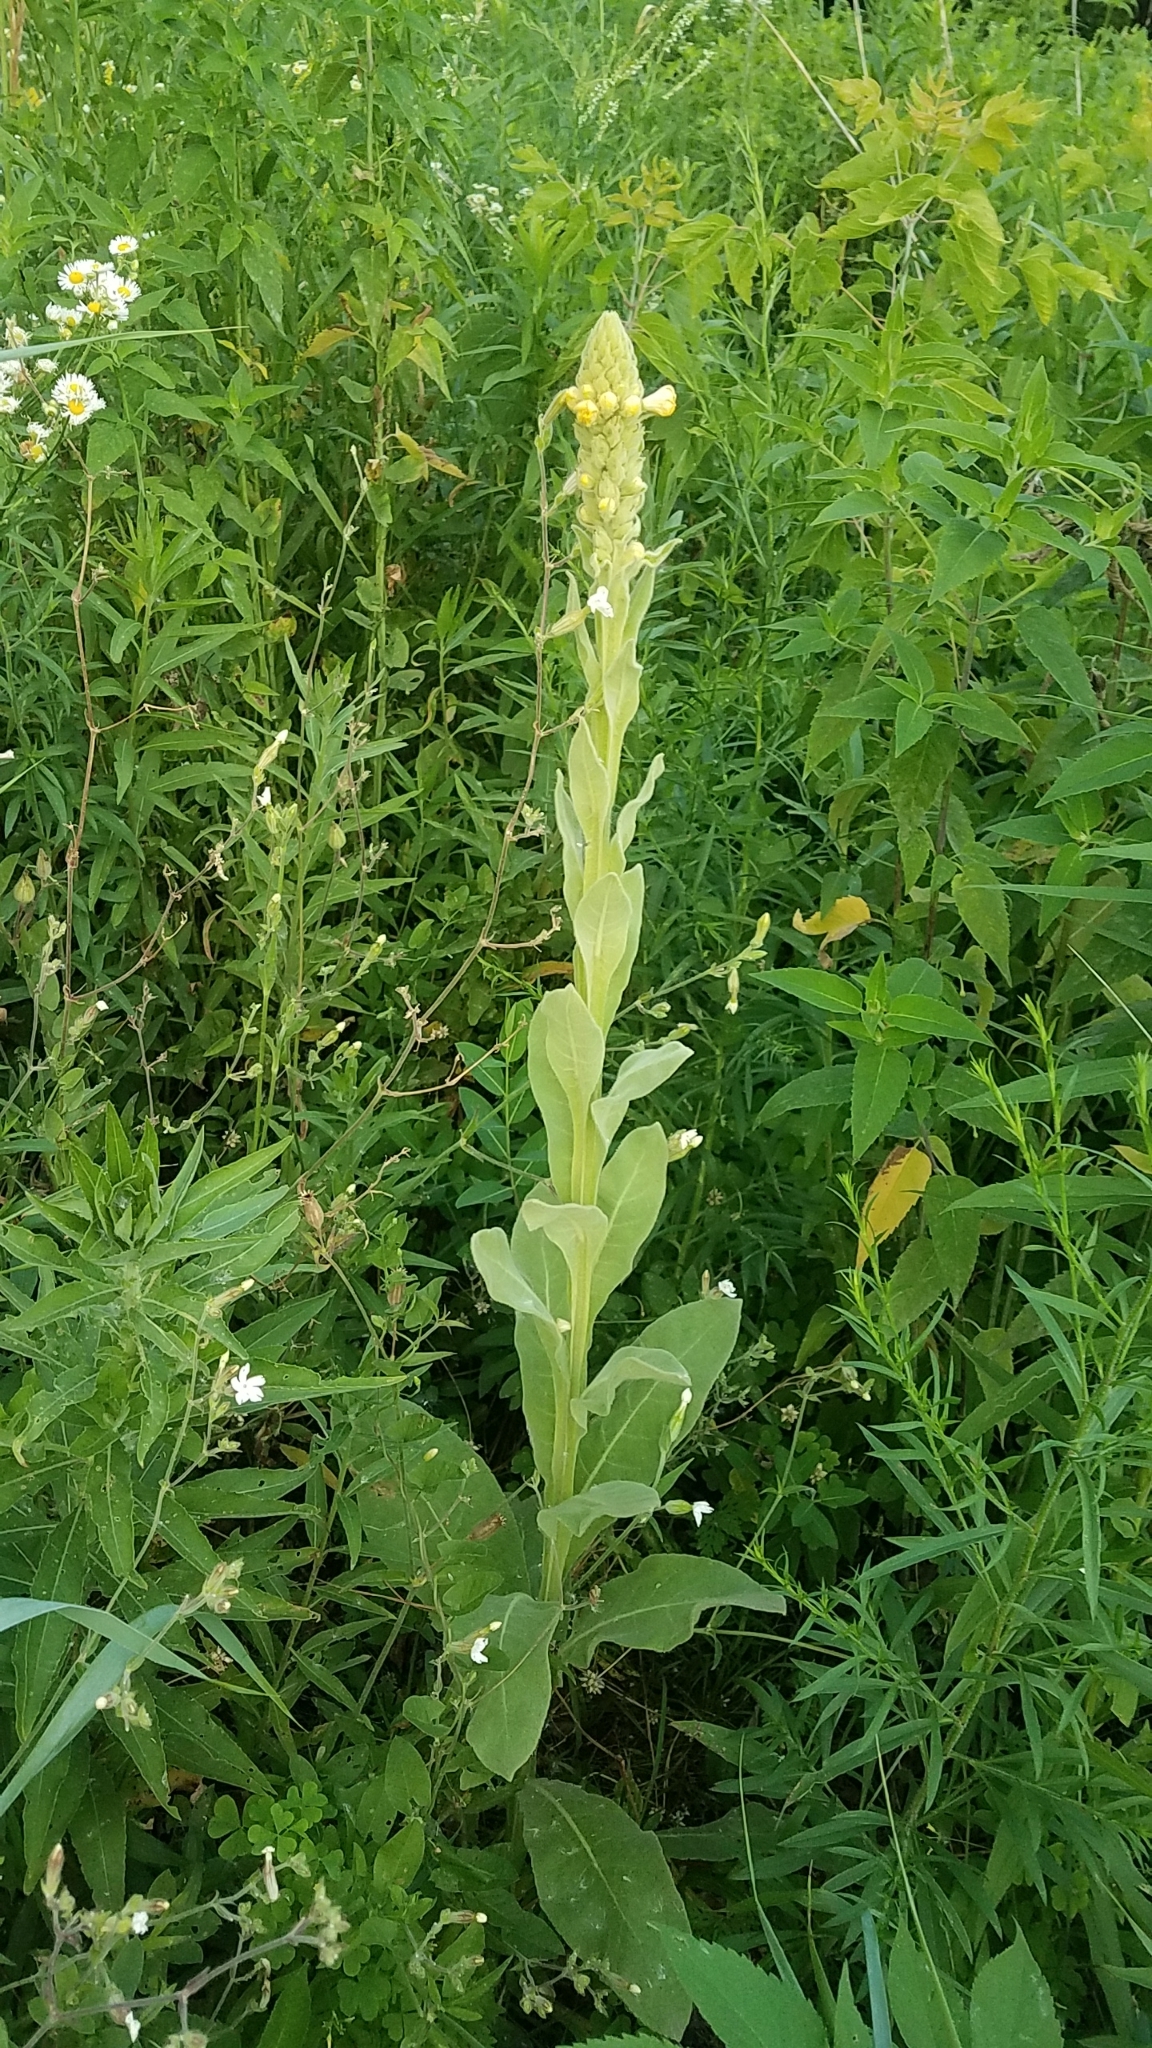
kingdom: Plantae
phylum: Tracheophyta
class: Magnoliopsida
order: Lamiales
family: Scrophulariaceae
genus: Verbascum
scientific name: Verbascum thapsus
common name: Common mullein
